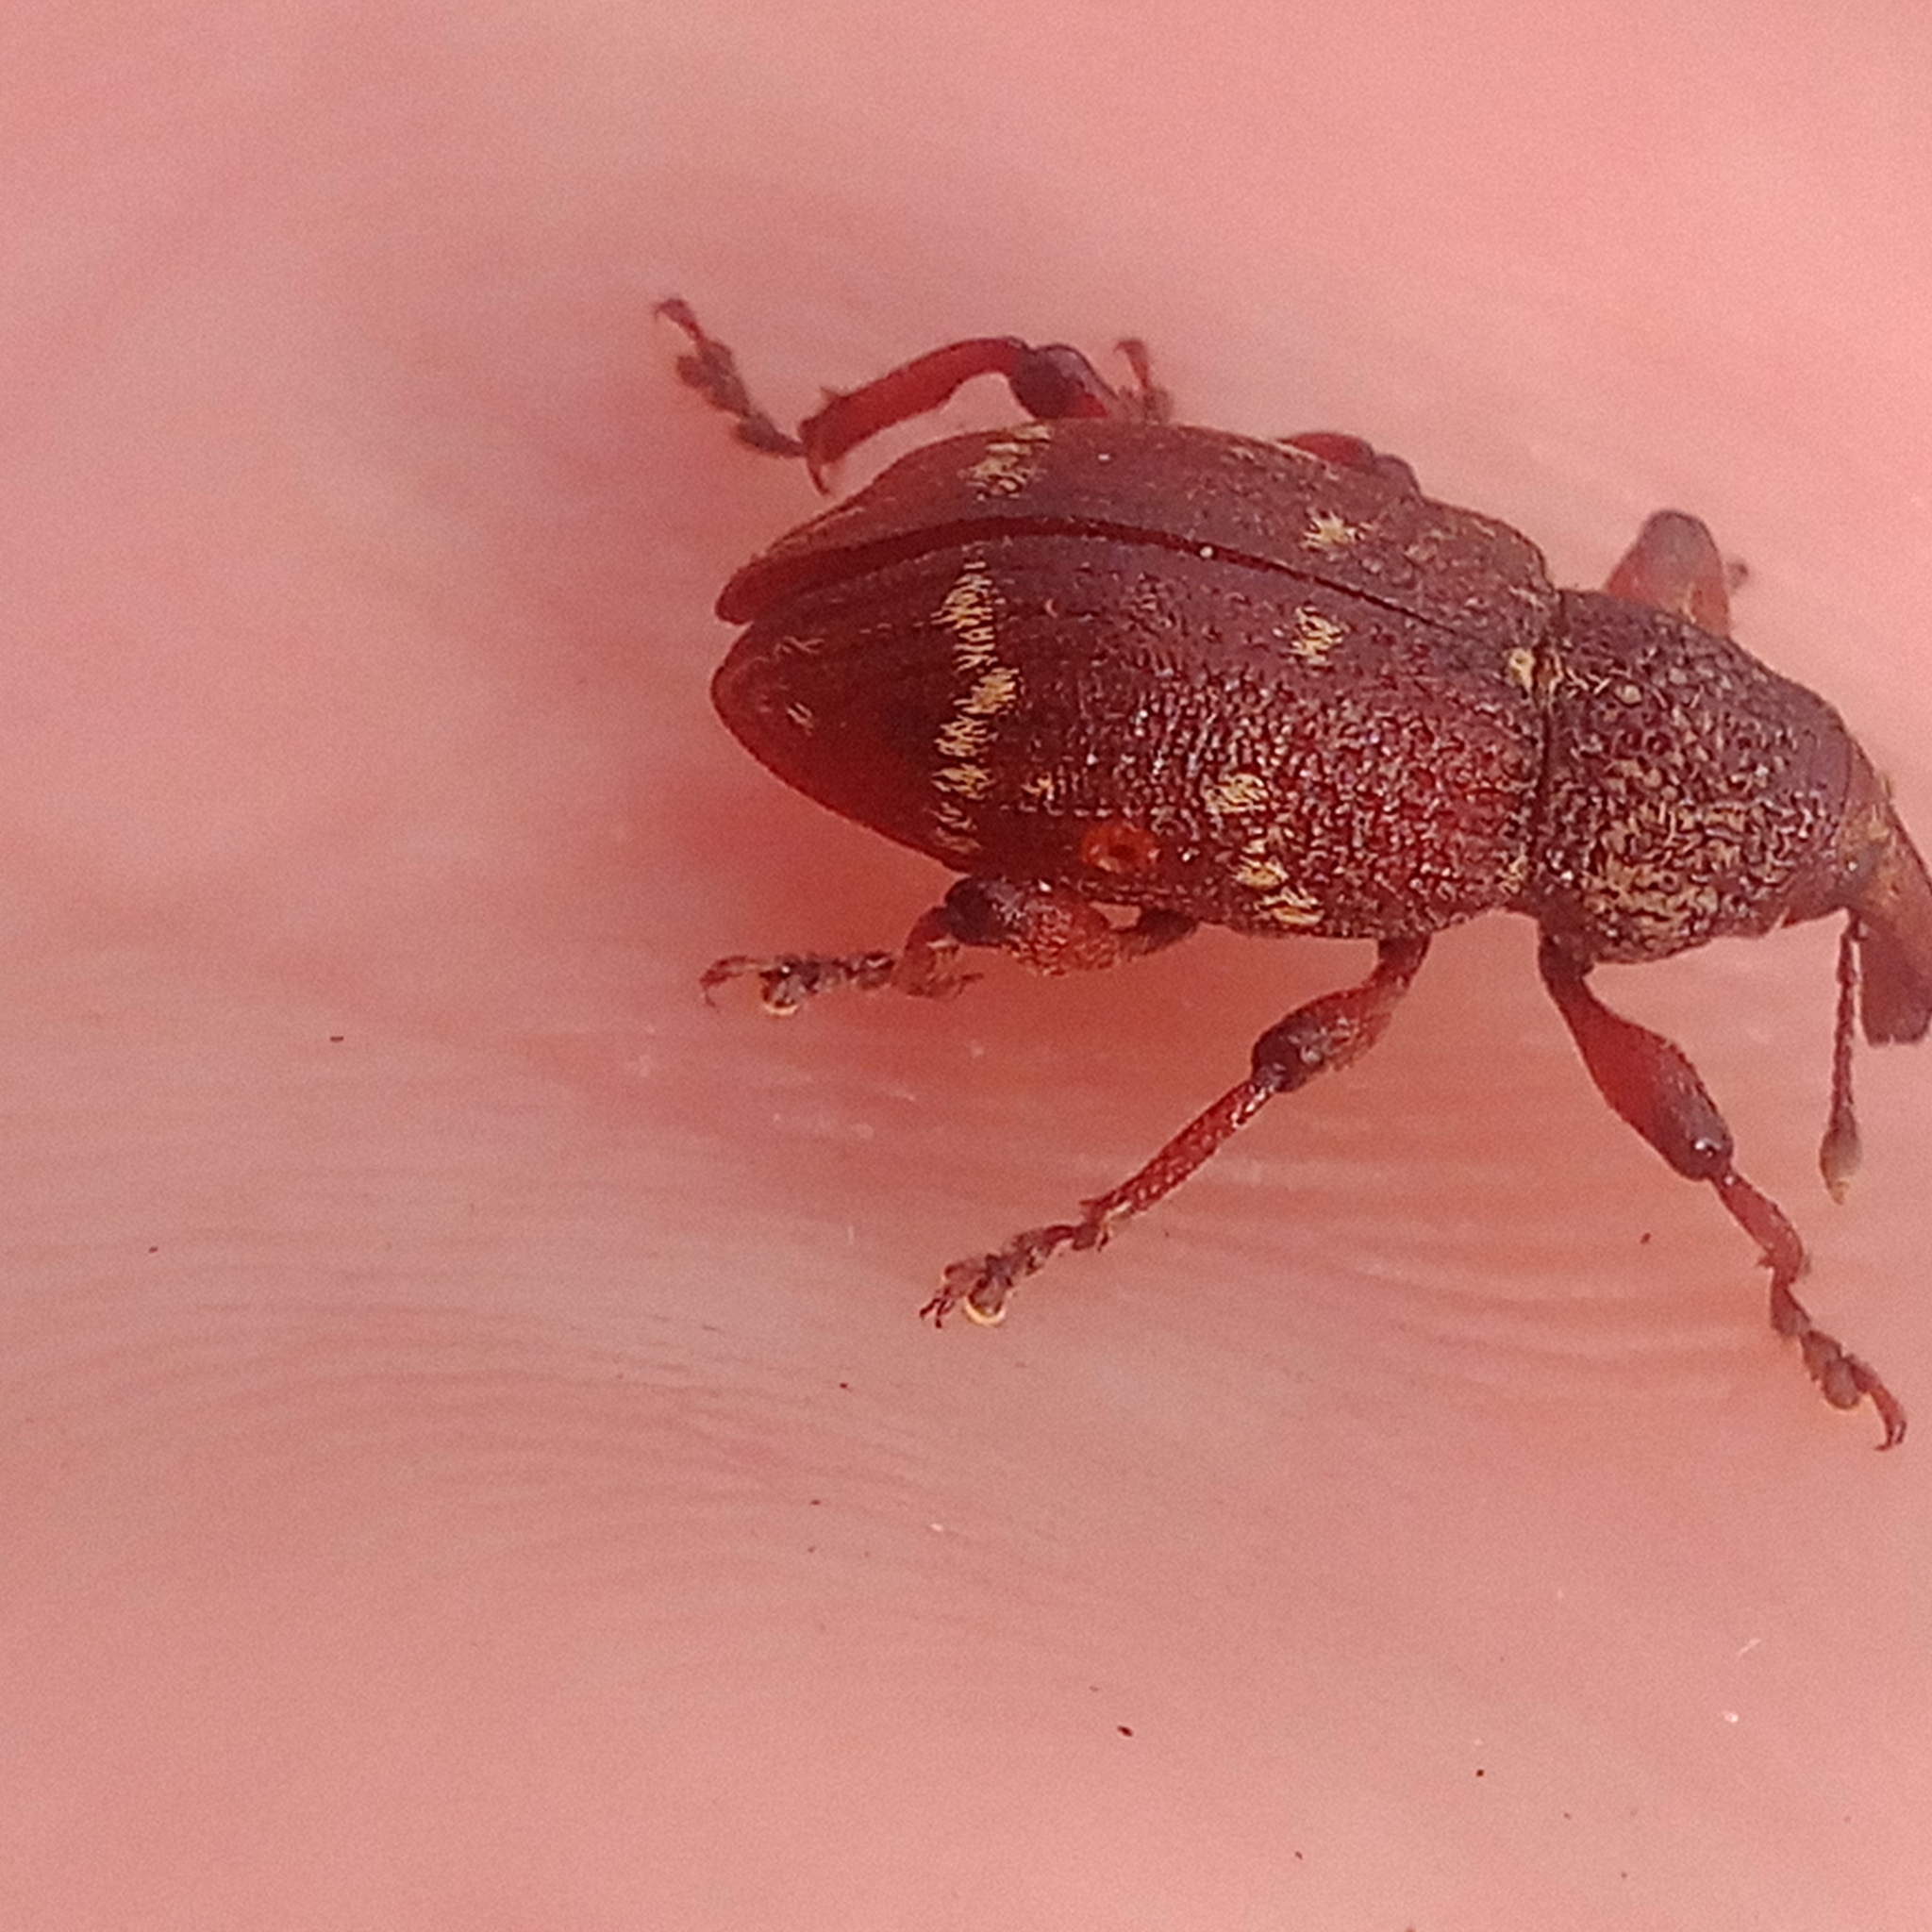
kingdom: Animalia
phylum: Arthropoda
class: Insecta
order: Coleoptera
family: Curculionidae
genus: Hylobius
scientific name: Hylobius transversovittatus
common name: Weevil
